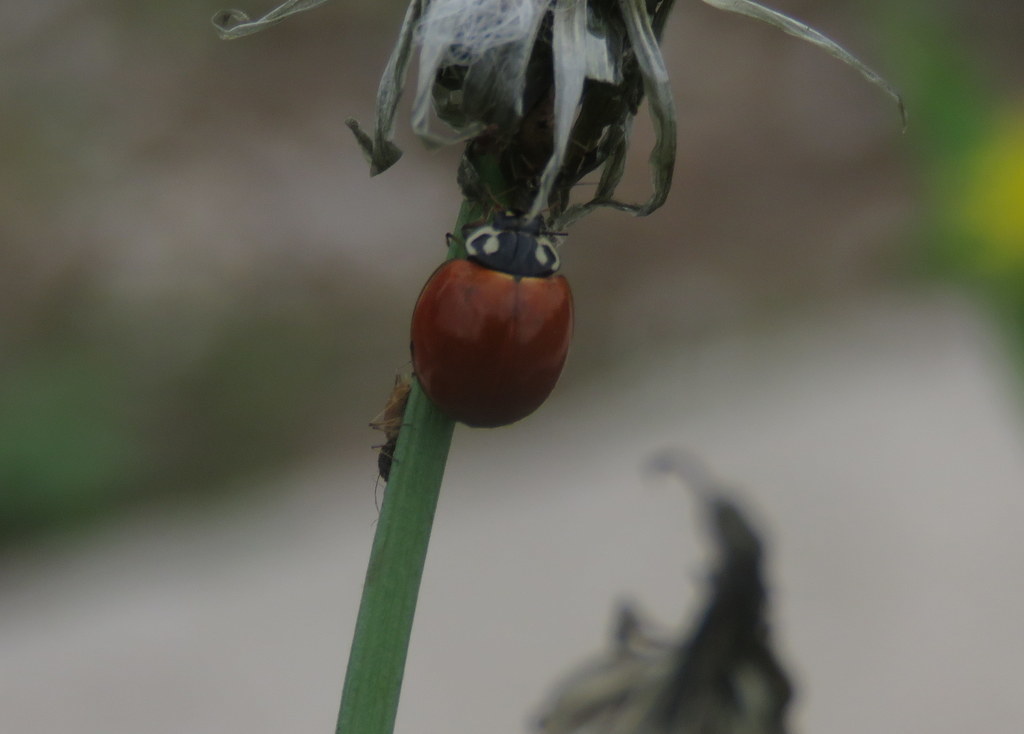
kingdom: Animalia
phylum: Arthropoda
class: Insecta
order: Coleoptera
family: Coccinellidae
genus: Cycloneda
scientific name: Cycloneda sanguinea
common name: Ladybird beetle
